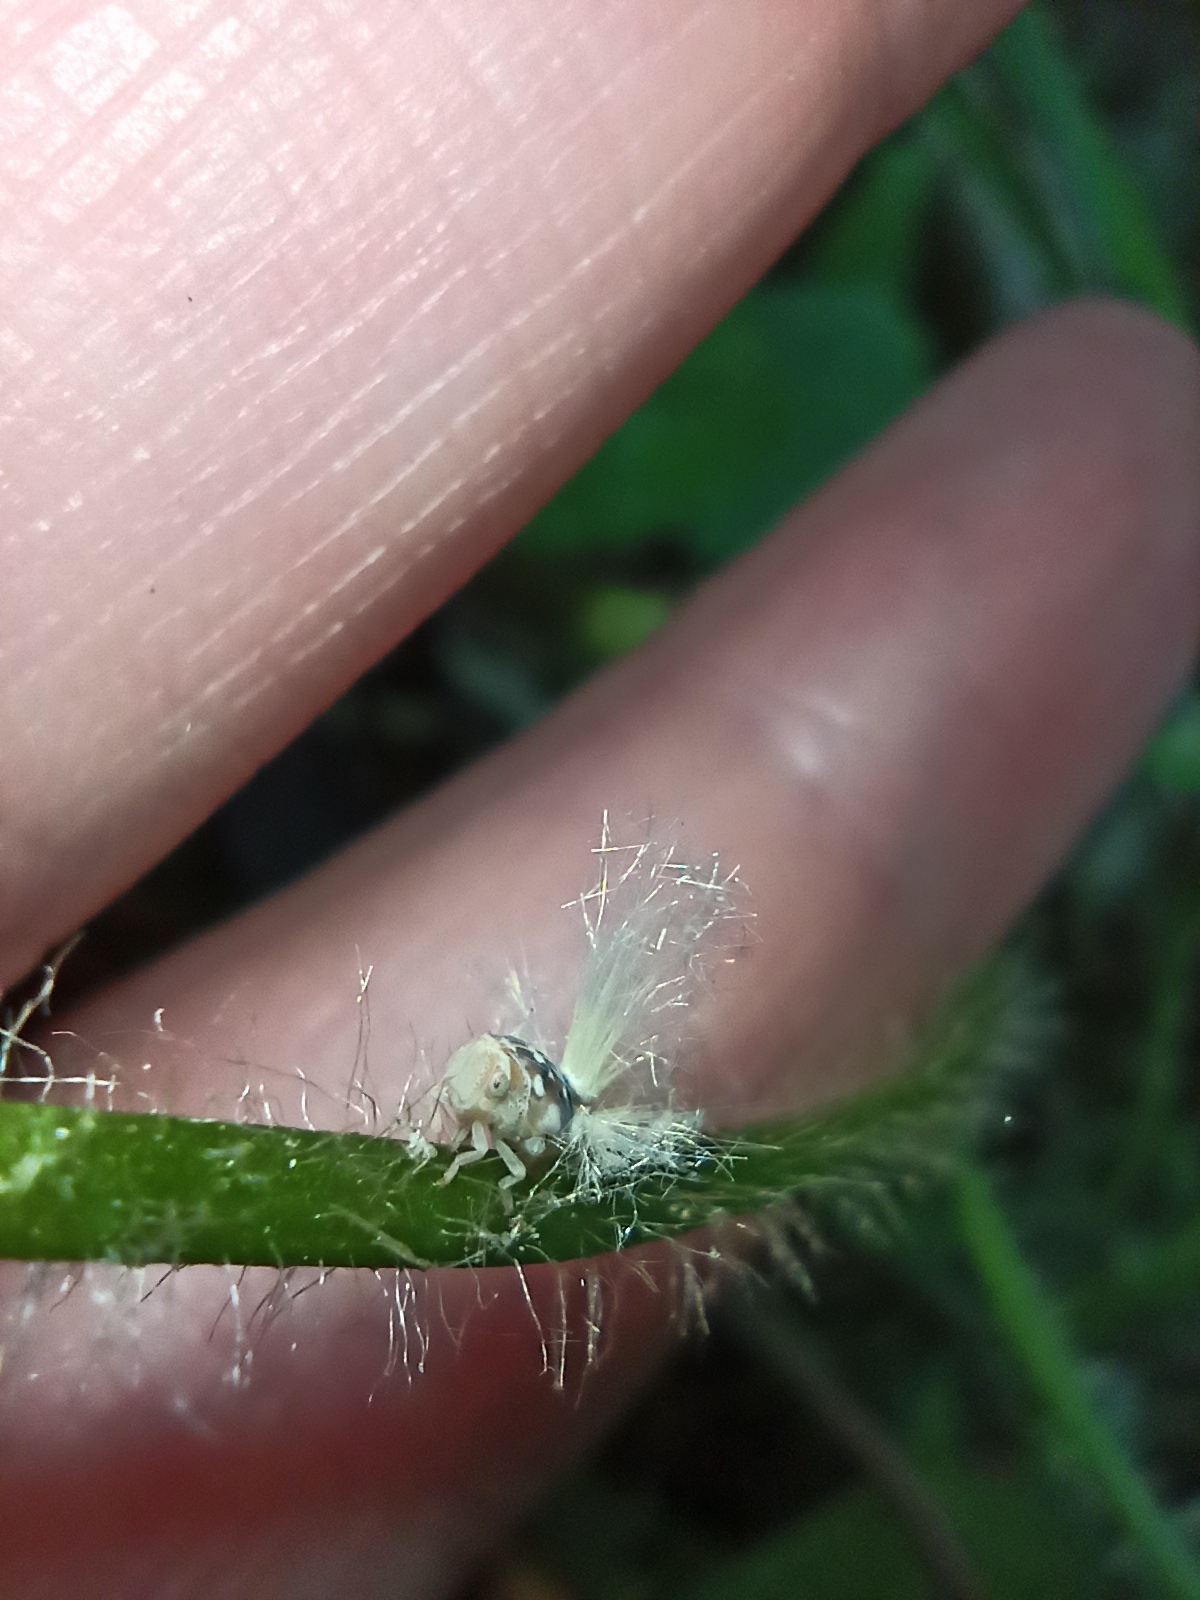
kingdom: Animalia
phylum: Arthropoda
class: Insecta
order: Hemiptera
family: Ricaniidae
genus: Scolypopa
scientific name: Scolypopa australis
